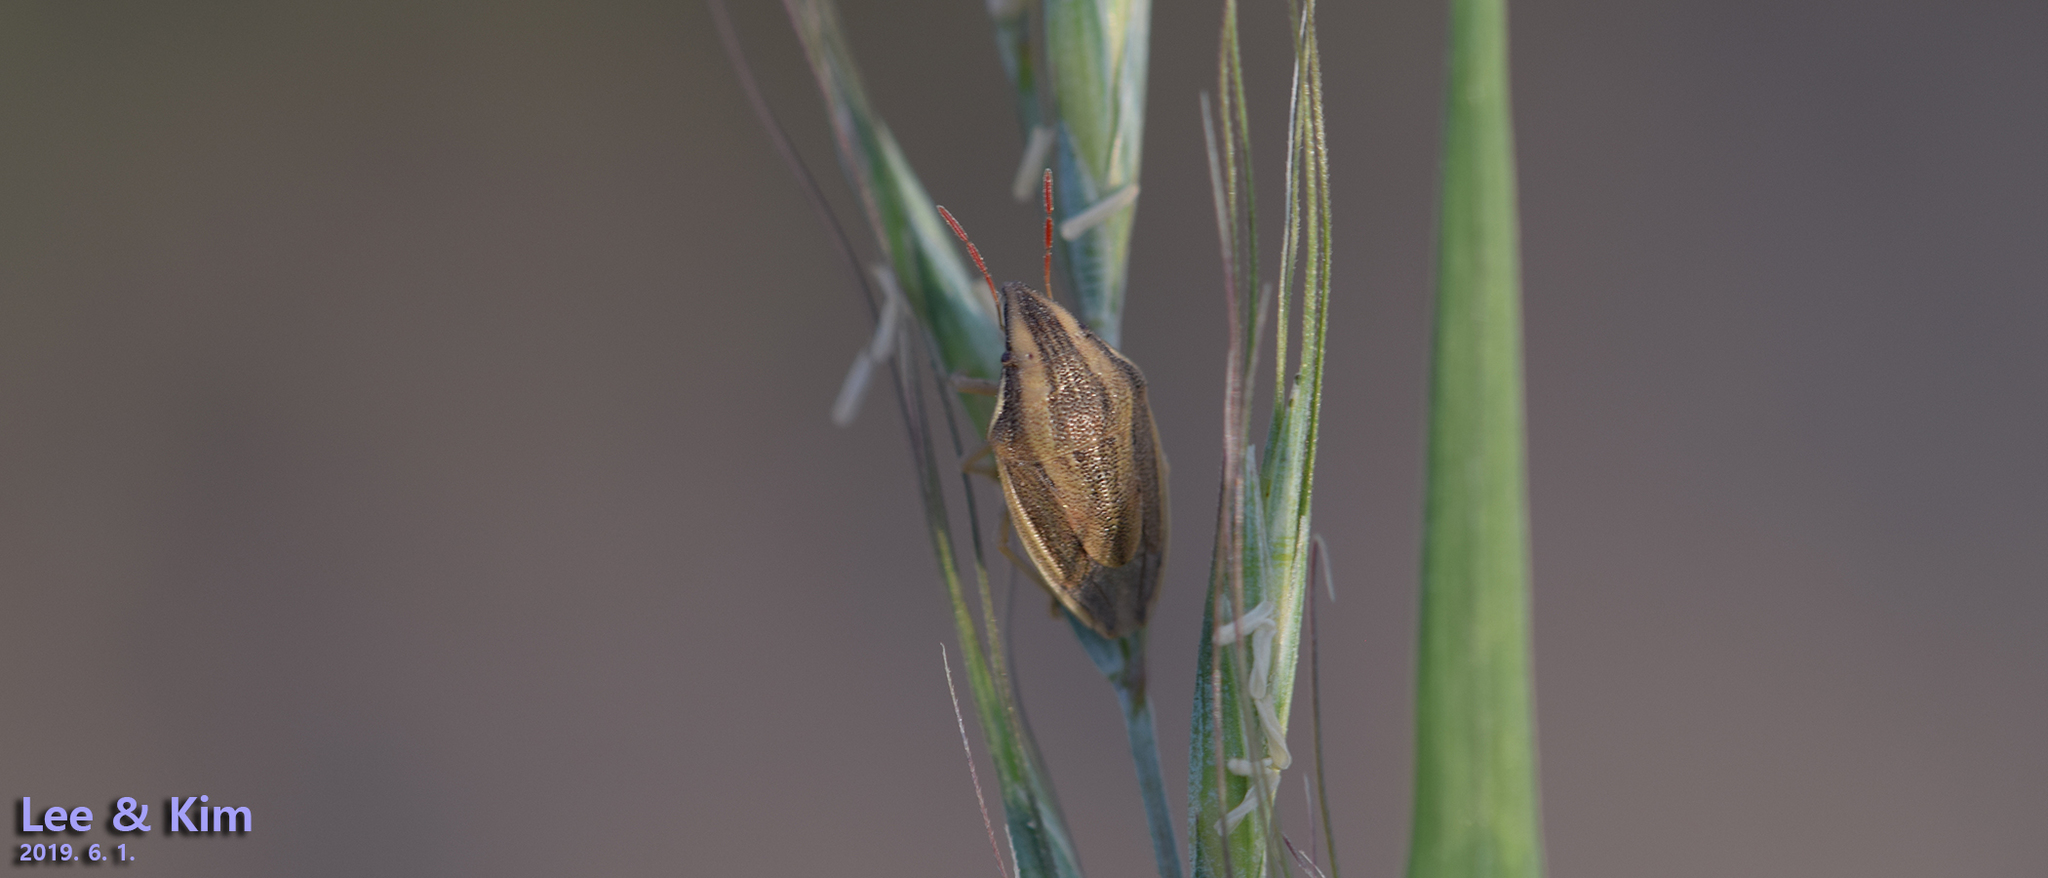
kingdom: Animalia
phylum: Arthropoda
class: Insecta
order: Hemiptera
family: Pentatomidae
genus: Aelia
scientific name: Aelia
